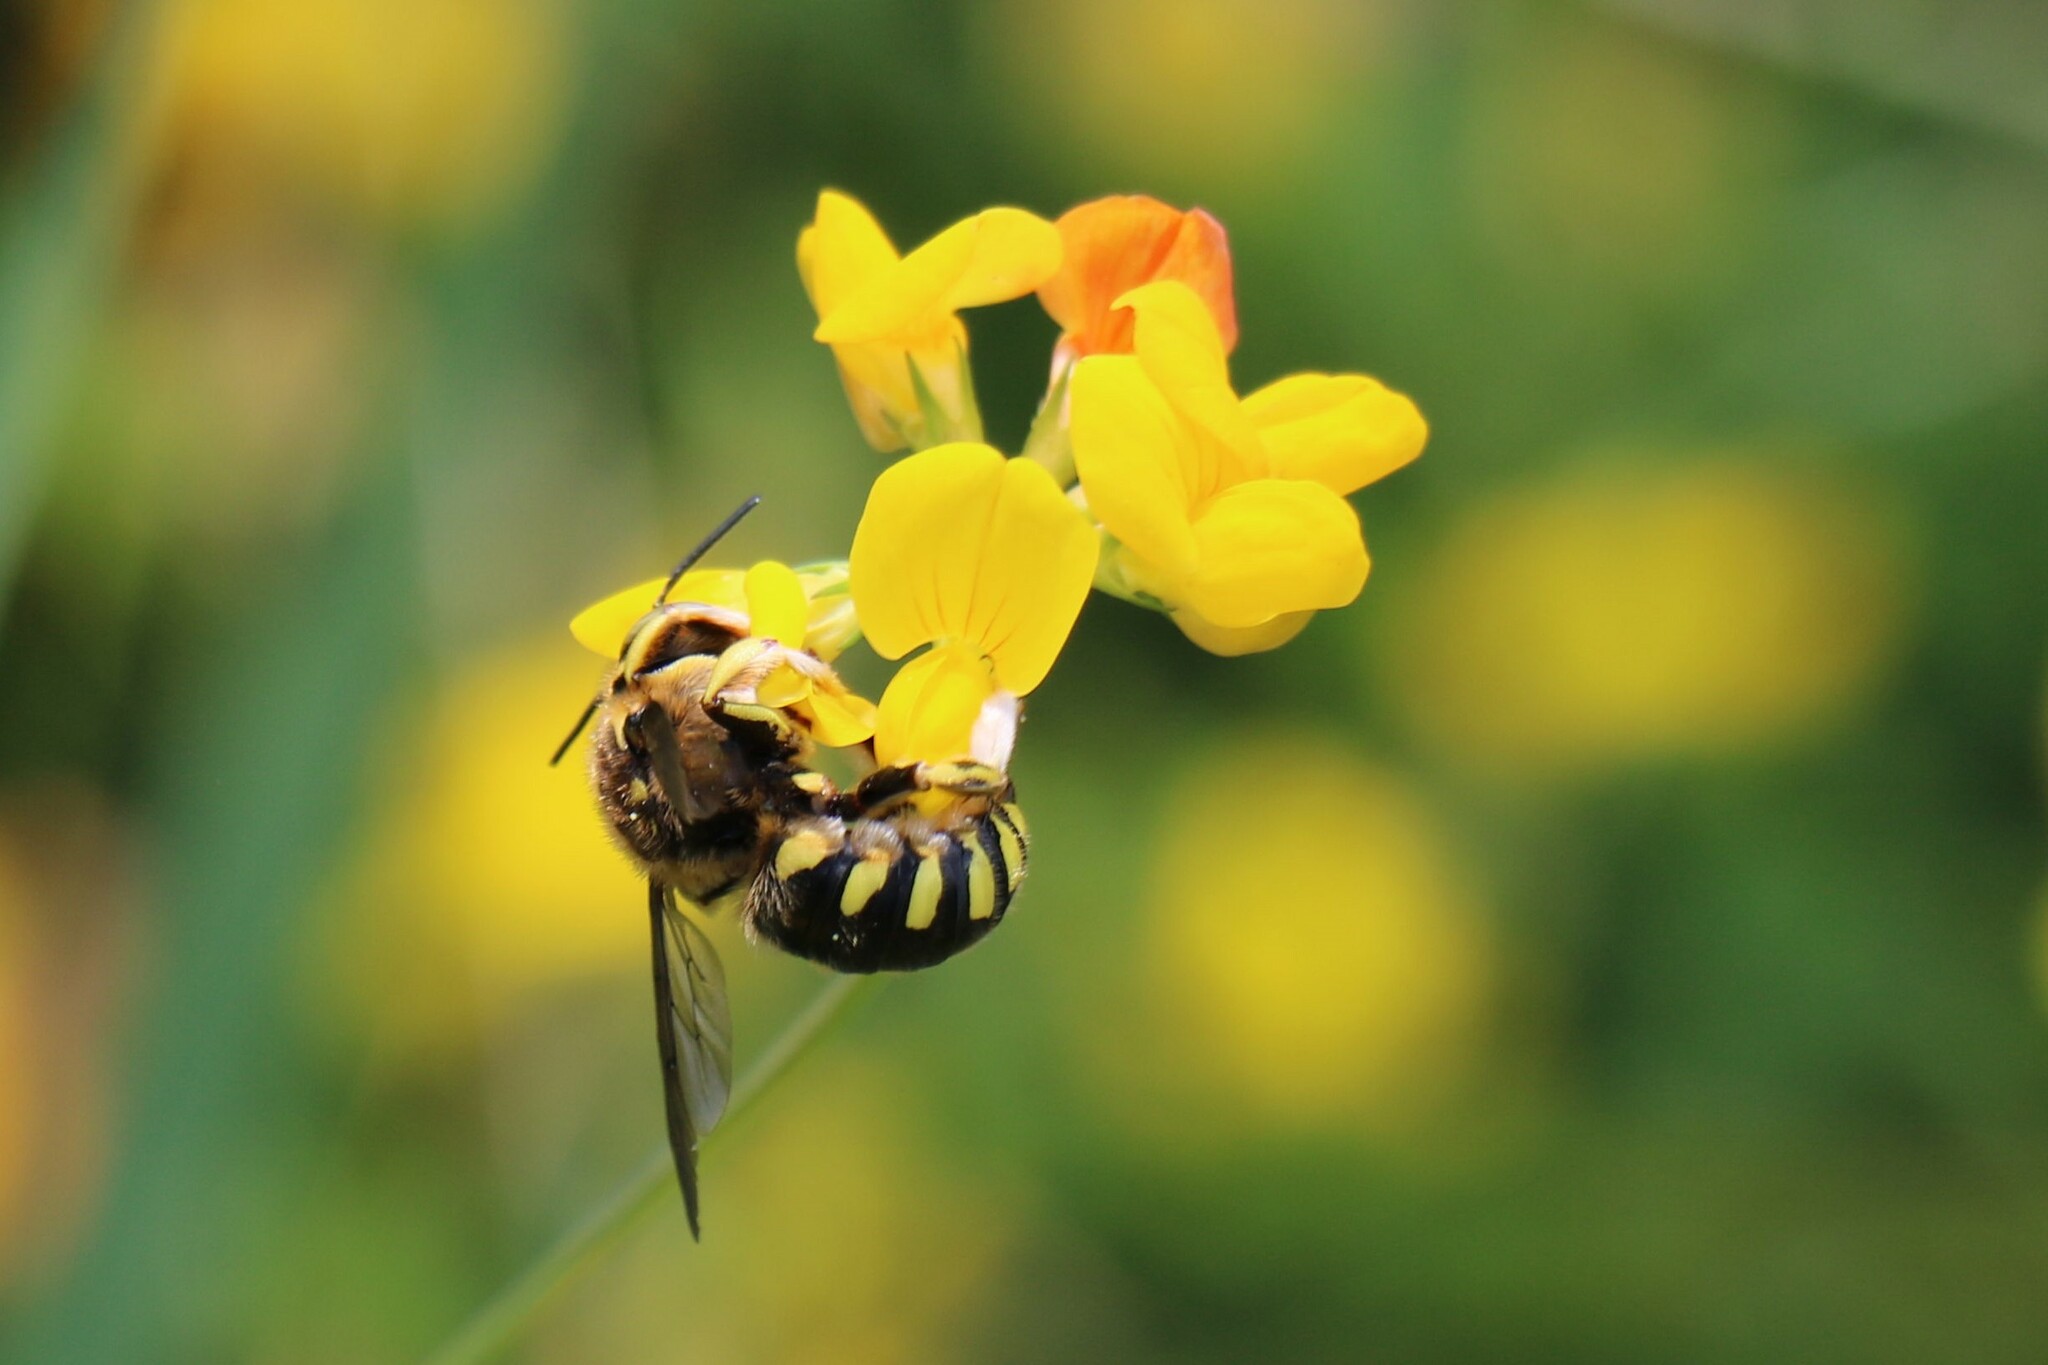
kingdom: Animalia
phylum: Arthropoda
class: Insecta
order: Hymenoptera
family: Megachilidae
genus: Anthidium
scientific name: Anthidium florentinum
